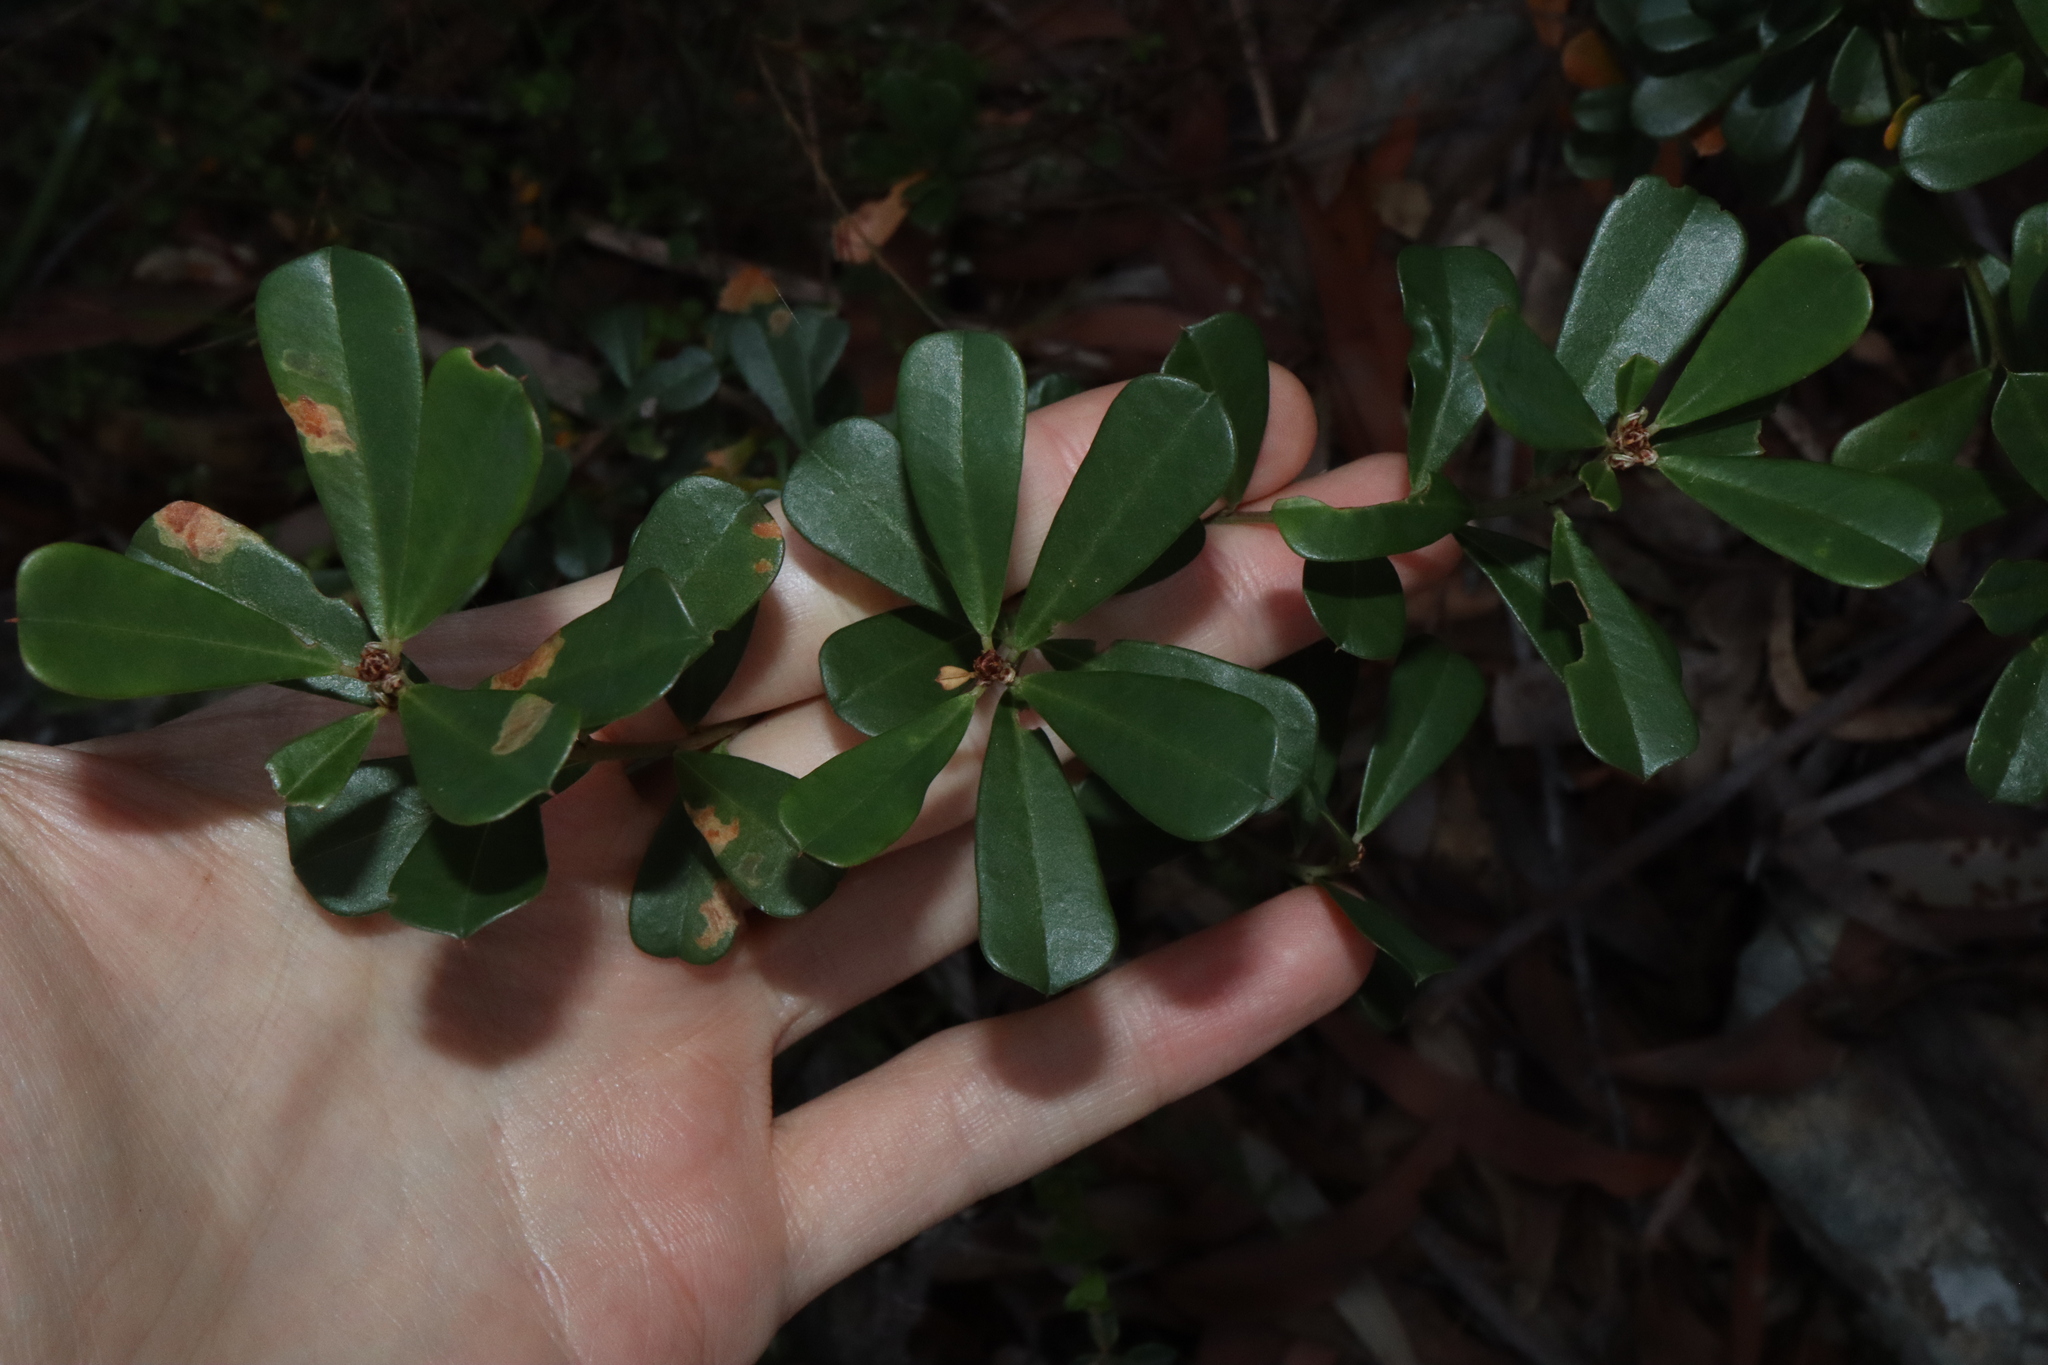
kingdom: Plantae
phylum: Tracheophyta
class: Magnoliopsida
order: Fabales
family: Fabaceae
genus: Pultenaea
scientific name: Pultenaea daphnoides
